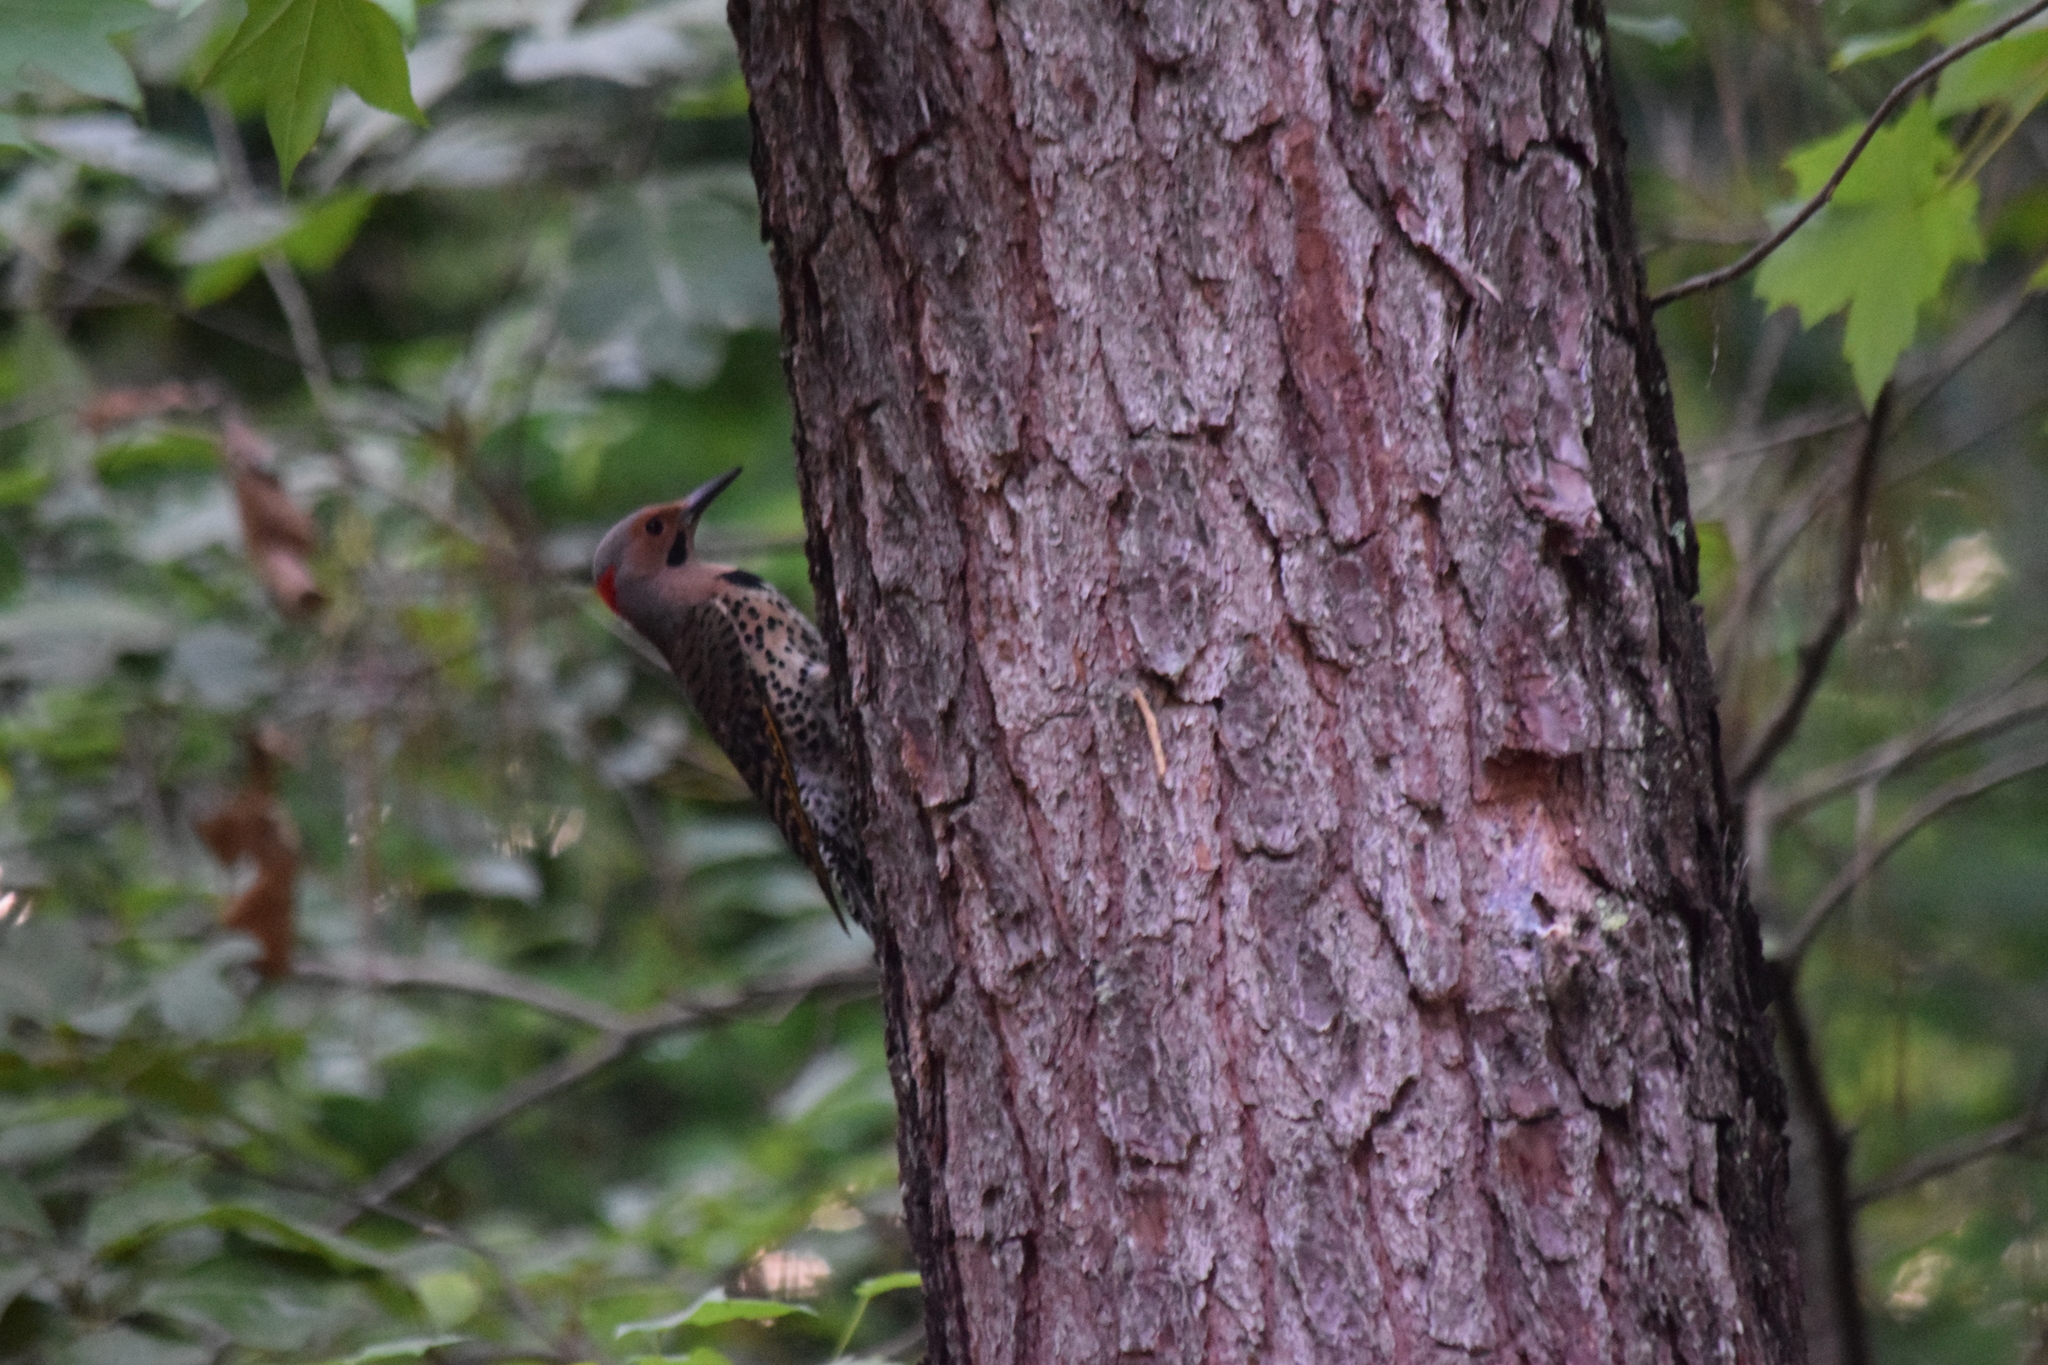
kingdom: Animalia
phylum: Chordata
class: Aves
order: Piciformes
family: Picidae
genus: Colaptes
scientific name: Colaptes auratus
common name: Northern flicker
